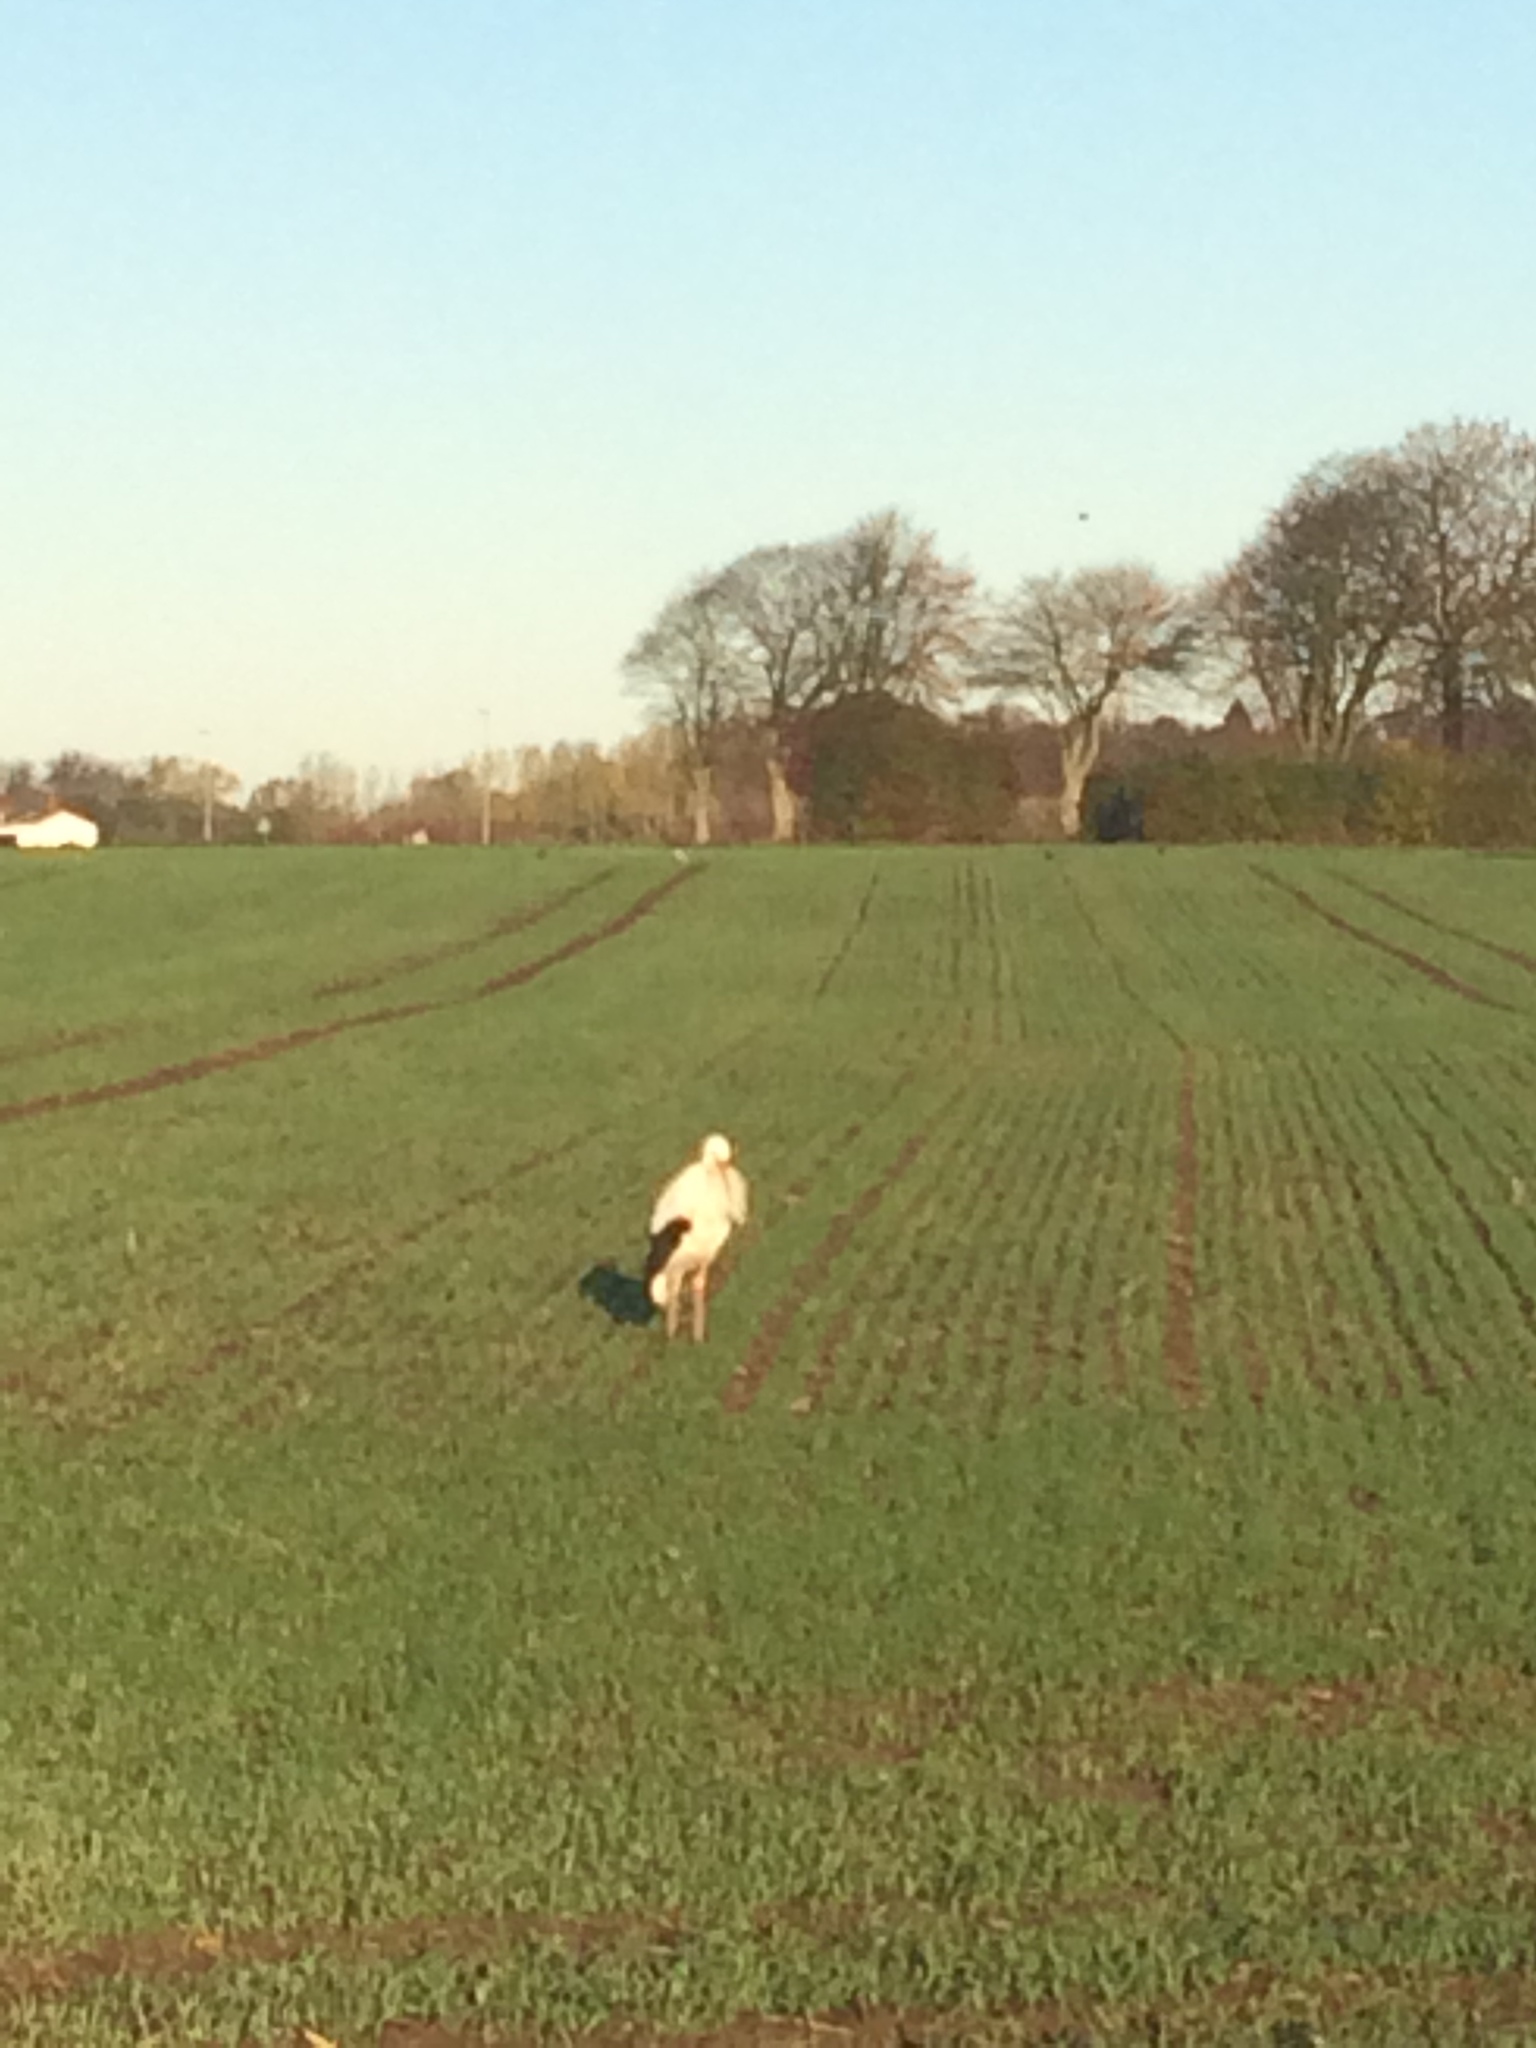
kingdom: Animalia
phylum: Chordata
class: Aves
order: Ciconiiformes
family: Ciconiidae
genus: Ciconia
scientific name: Ciconia ciconia
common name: White stork
